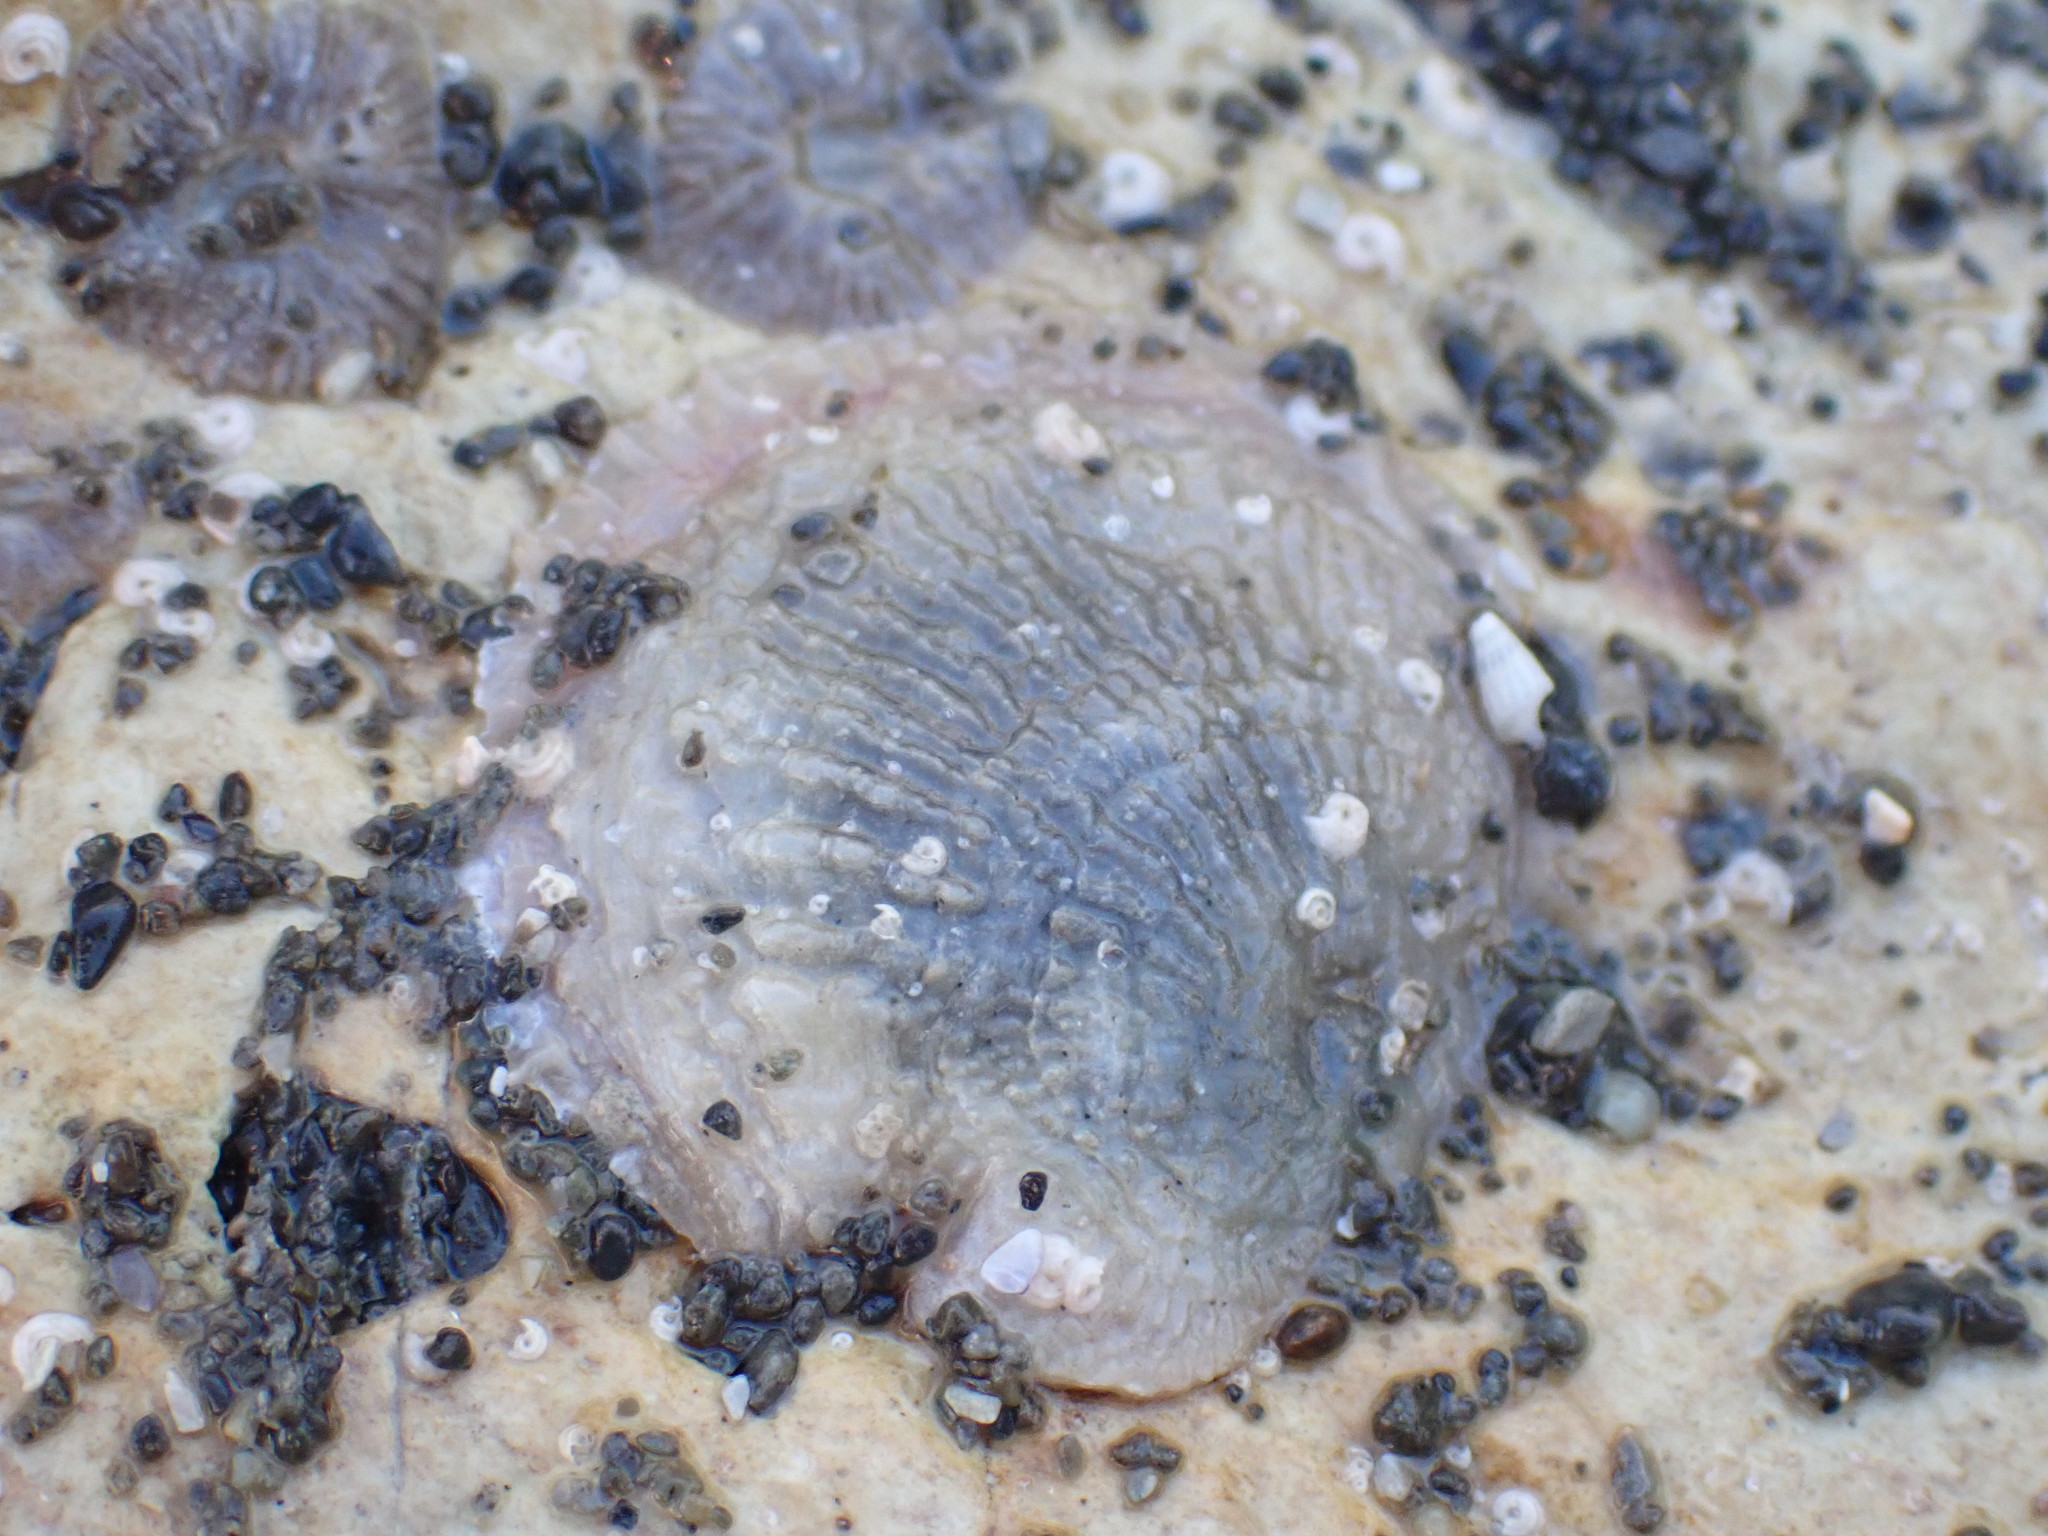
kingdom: Animalia
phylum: Mollusca
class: Bivalvia
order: Pectinida
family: Anomiidae
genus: Monia
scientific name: Monia zelandica
